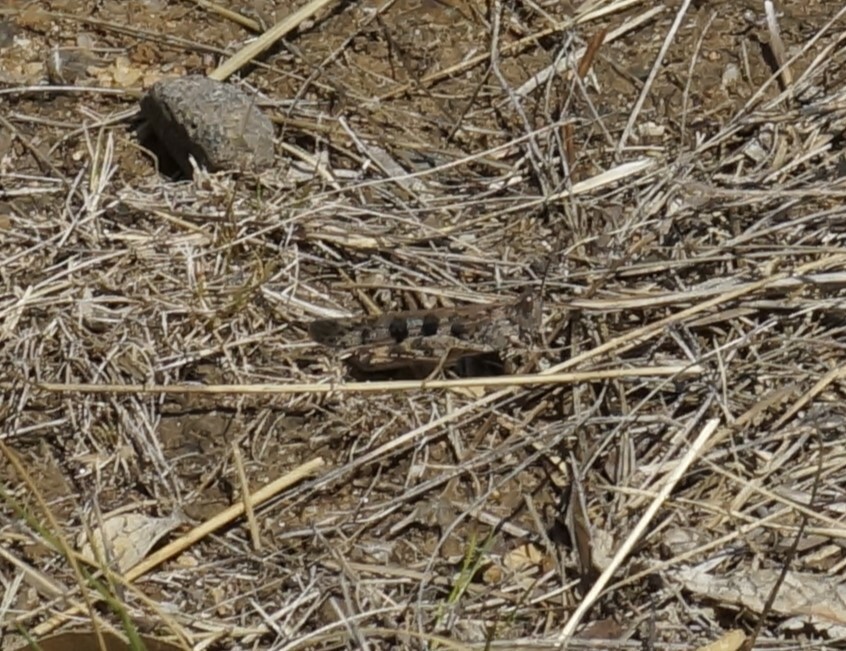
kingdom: Animalia
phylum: Arthropoda
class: Insecta
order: Orthoptera
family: Acrididae
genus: Chortoicetes
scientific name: Chortoicetes terminifera
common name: Australian plague locust
